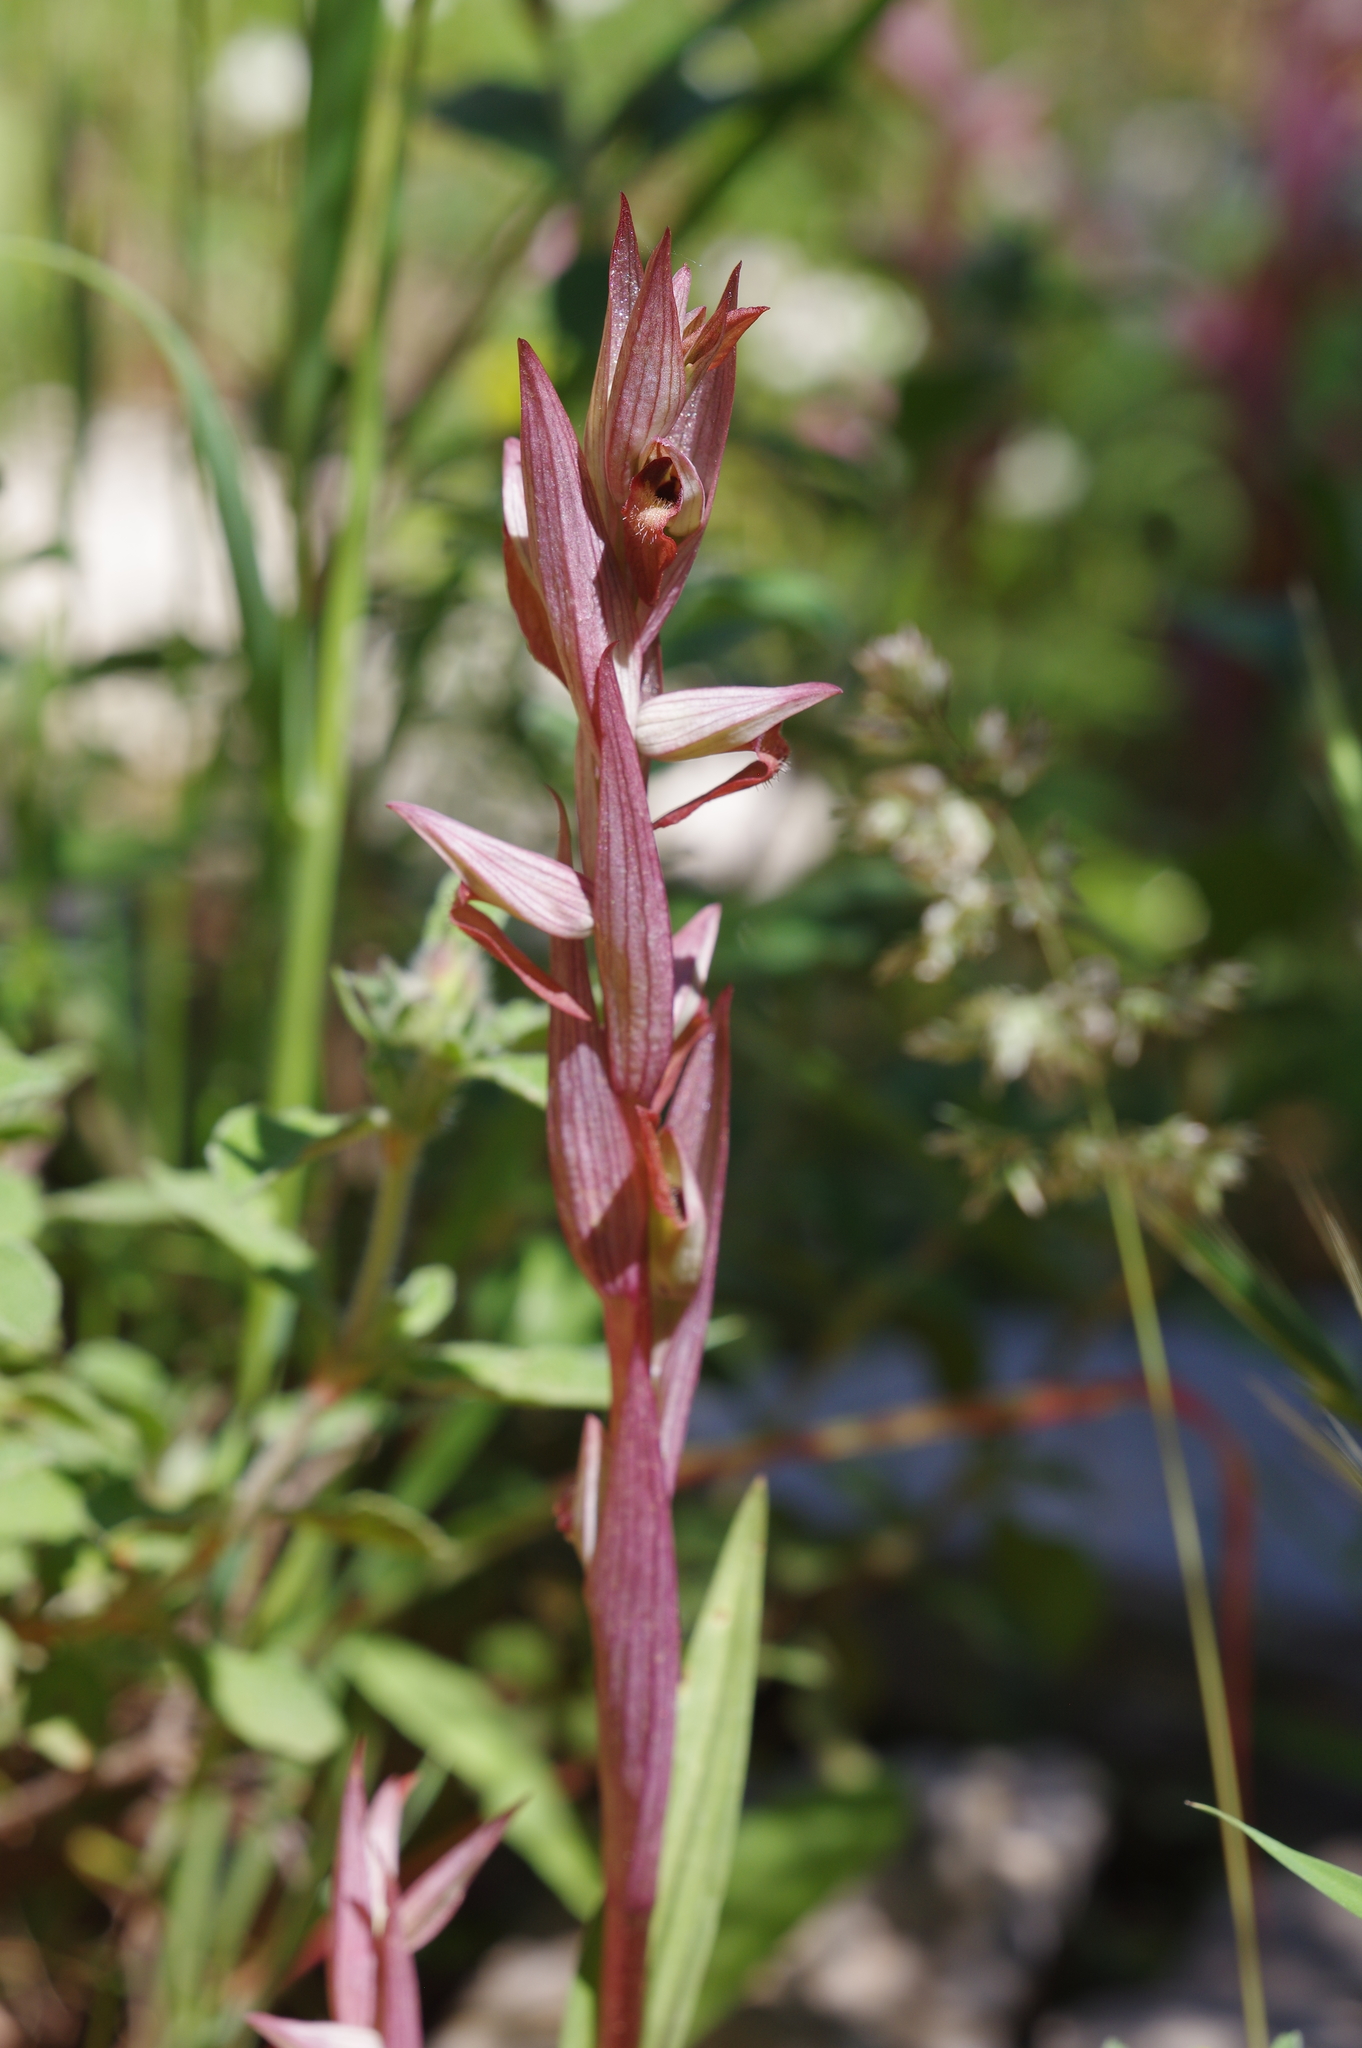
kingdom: Plantae
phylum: Tracheophyta
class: Liliopsida
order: Asparagales
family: Orchidaceae
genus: Serapias
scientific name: Serapias bergonii
